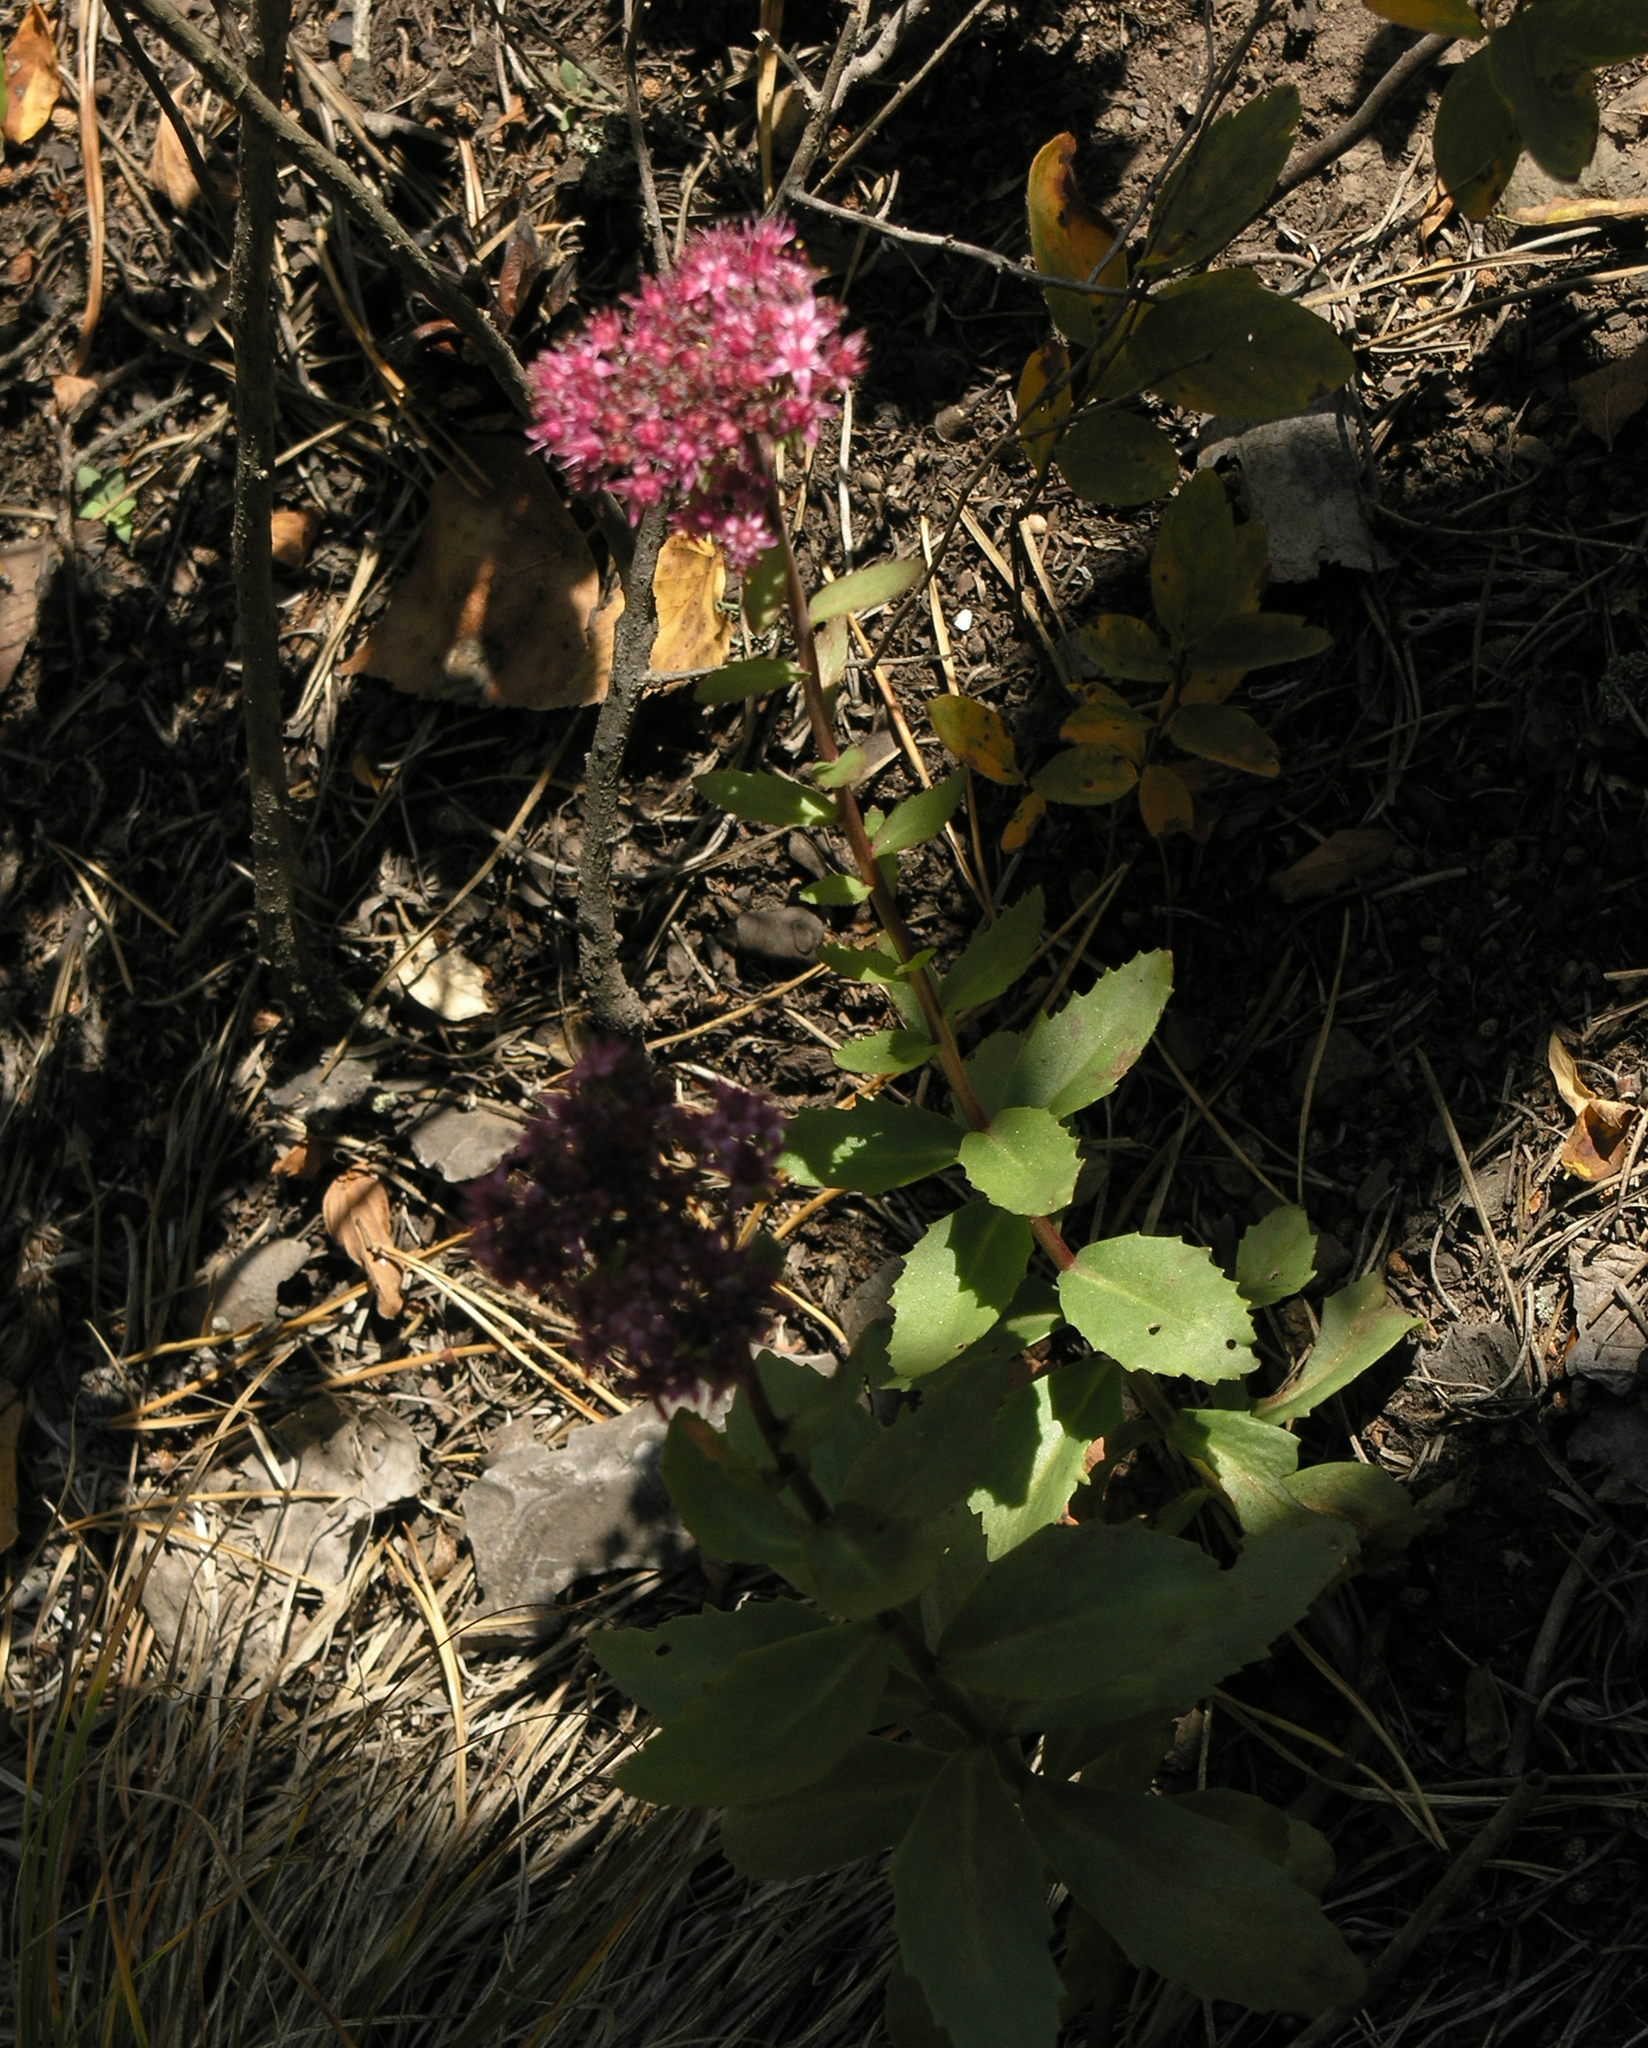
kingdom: Plantae
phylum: Tracheophyta
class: Magnoliopsida
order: Saxifragales
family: Crassulaceae
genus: Hylotelephium
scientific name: Hylotelephium telephium
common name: Live-forever
